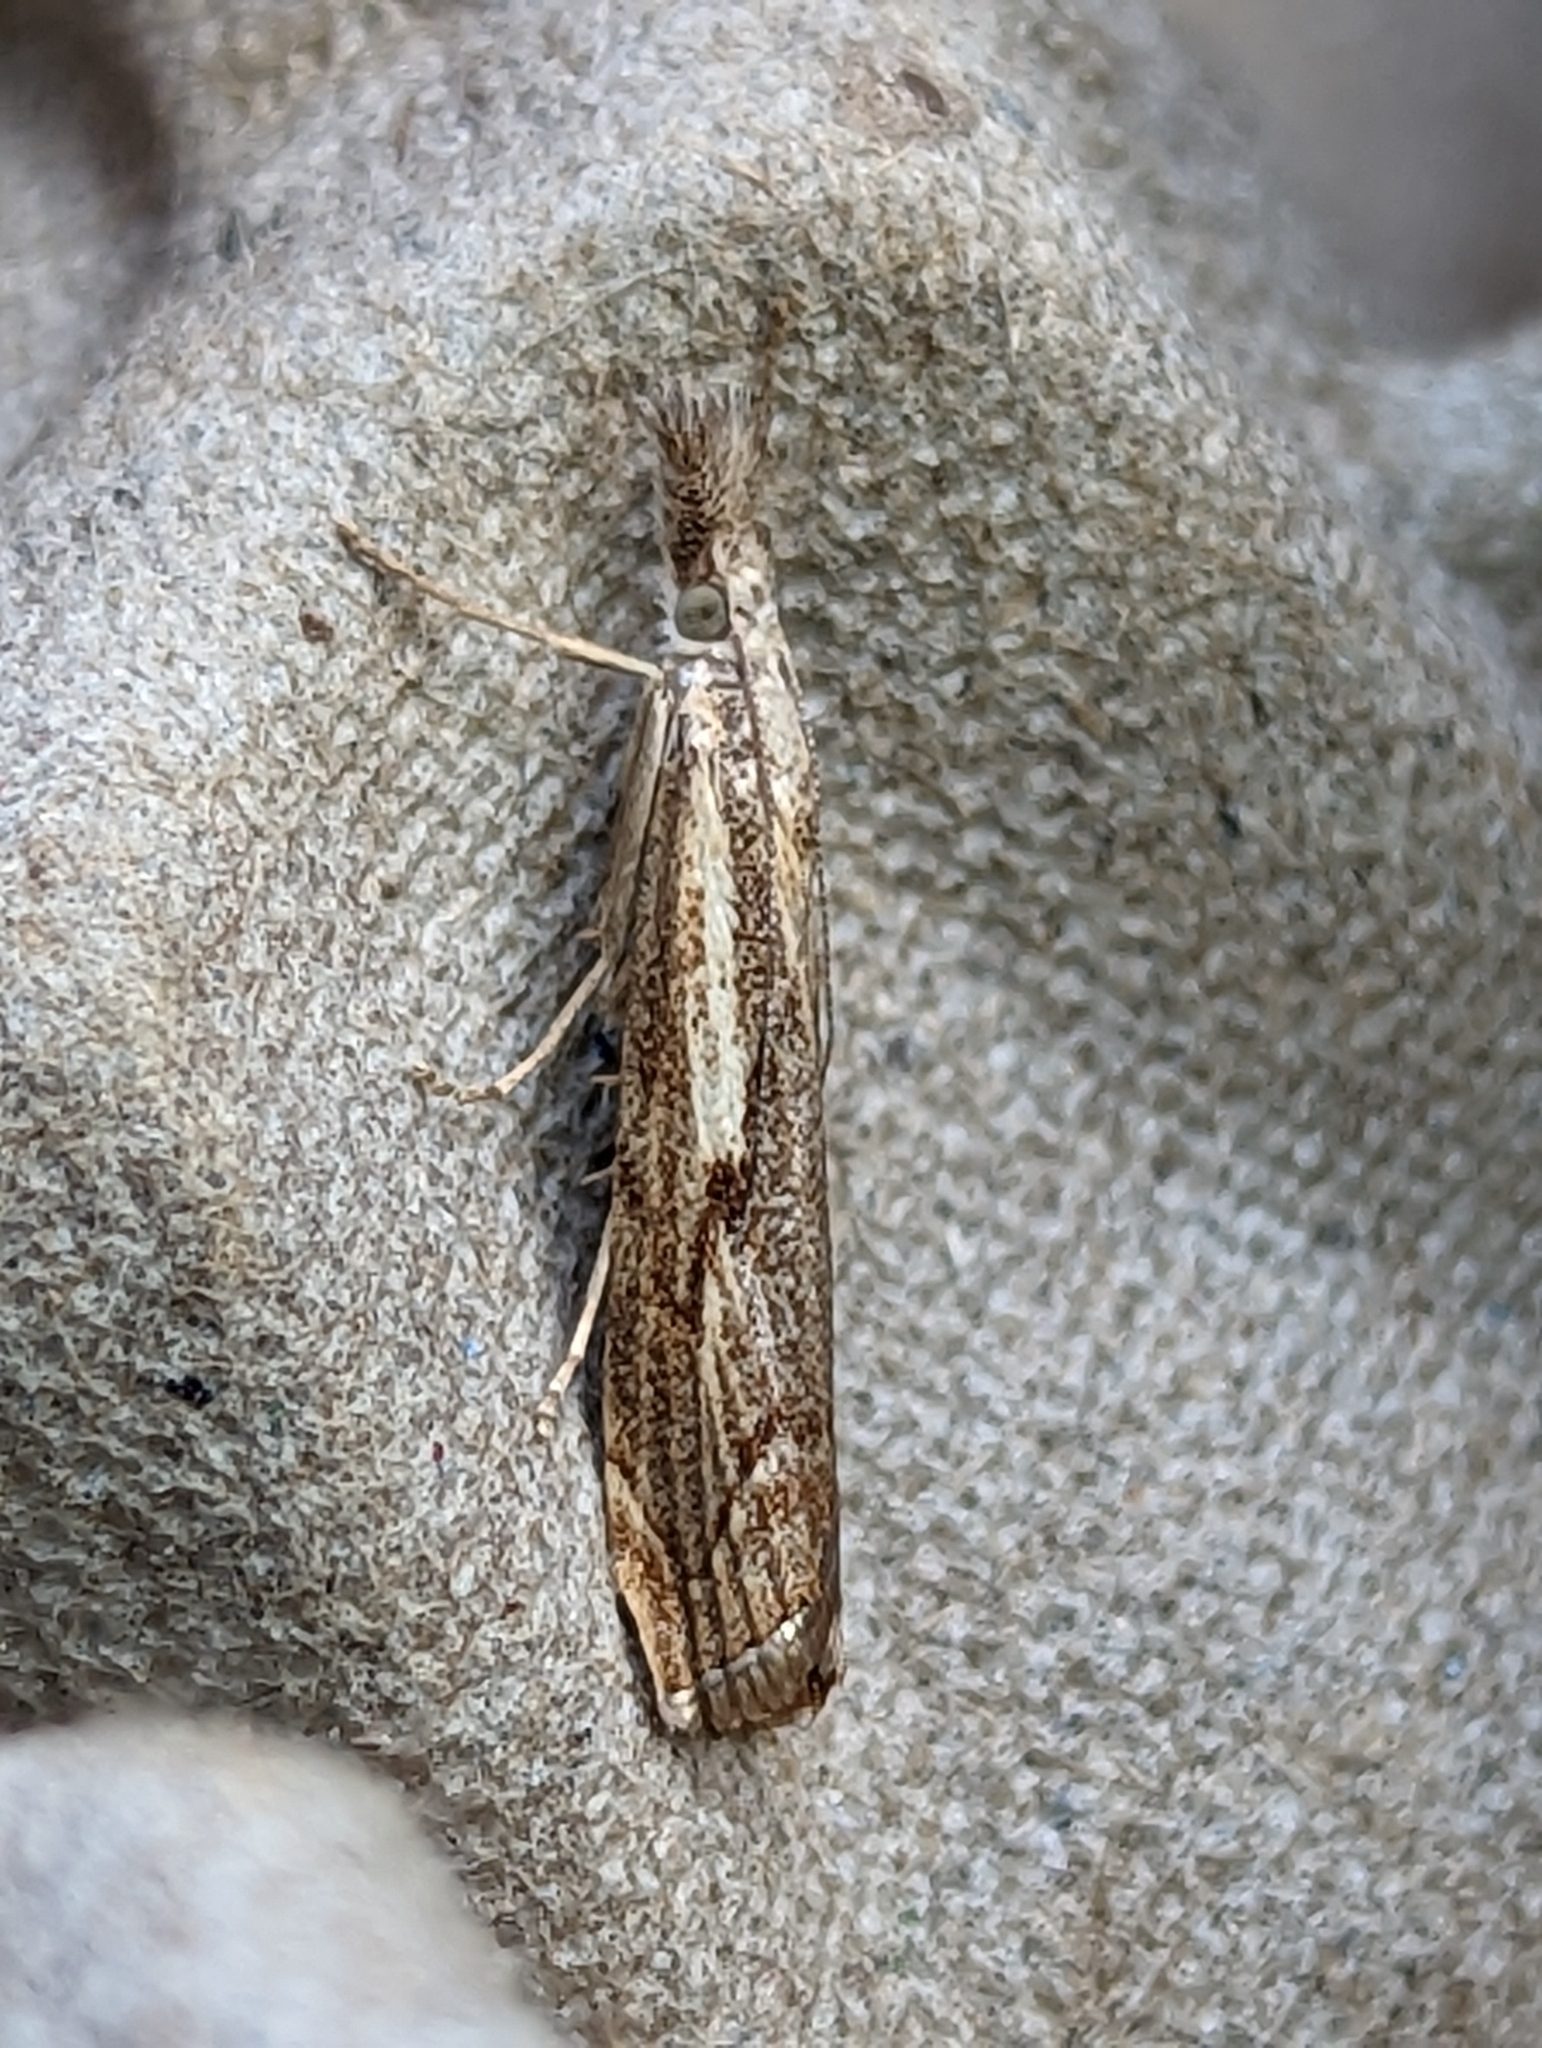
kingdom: Animalia
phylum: Arthropoda
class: Insecta
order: Lepidoptera
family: Crambidae
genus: Agriphila
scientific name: Agriphila geniculea
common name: Elbow-stripe grass-veneer
